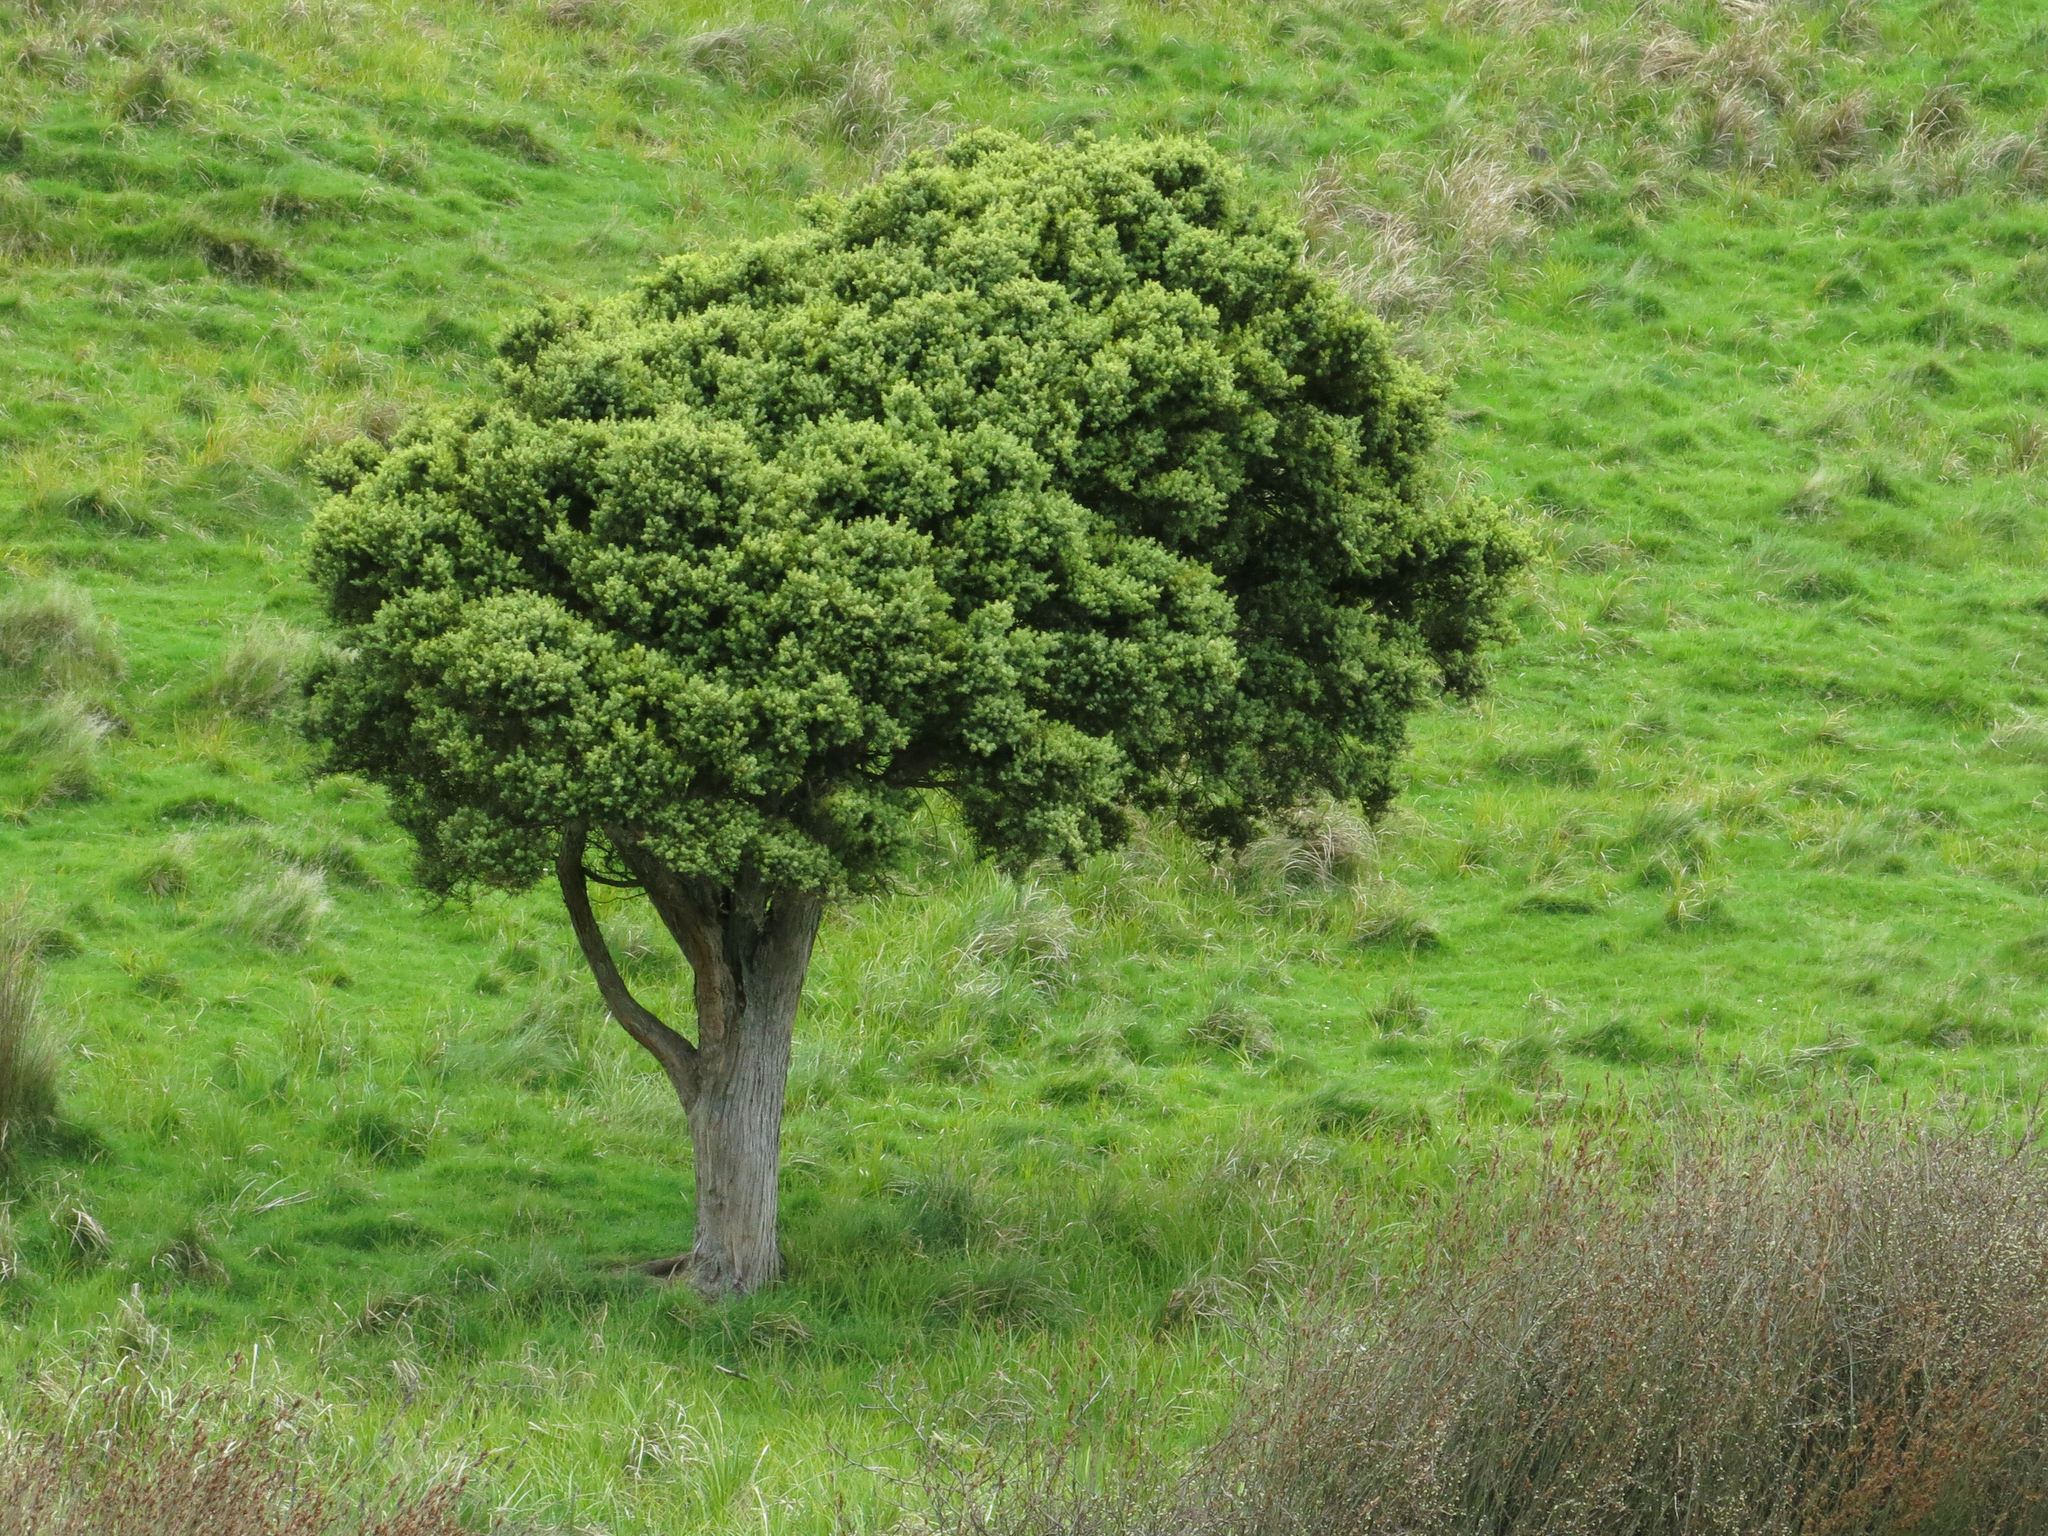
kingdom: Plantae
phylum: Tracheophyta
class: Pinopsida
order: Pinales
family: Podocarpaceae
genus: Podocarpus
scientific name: Podocarpus totara
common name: Totara
